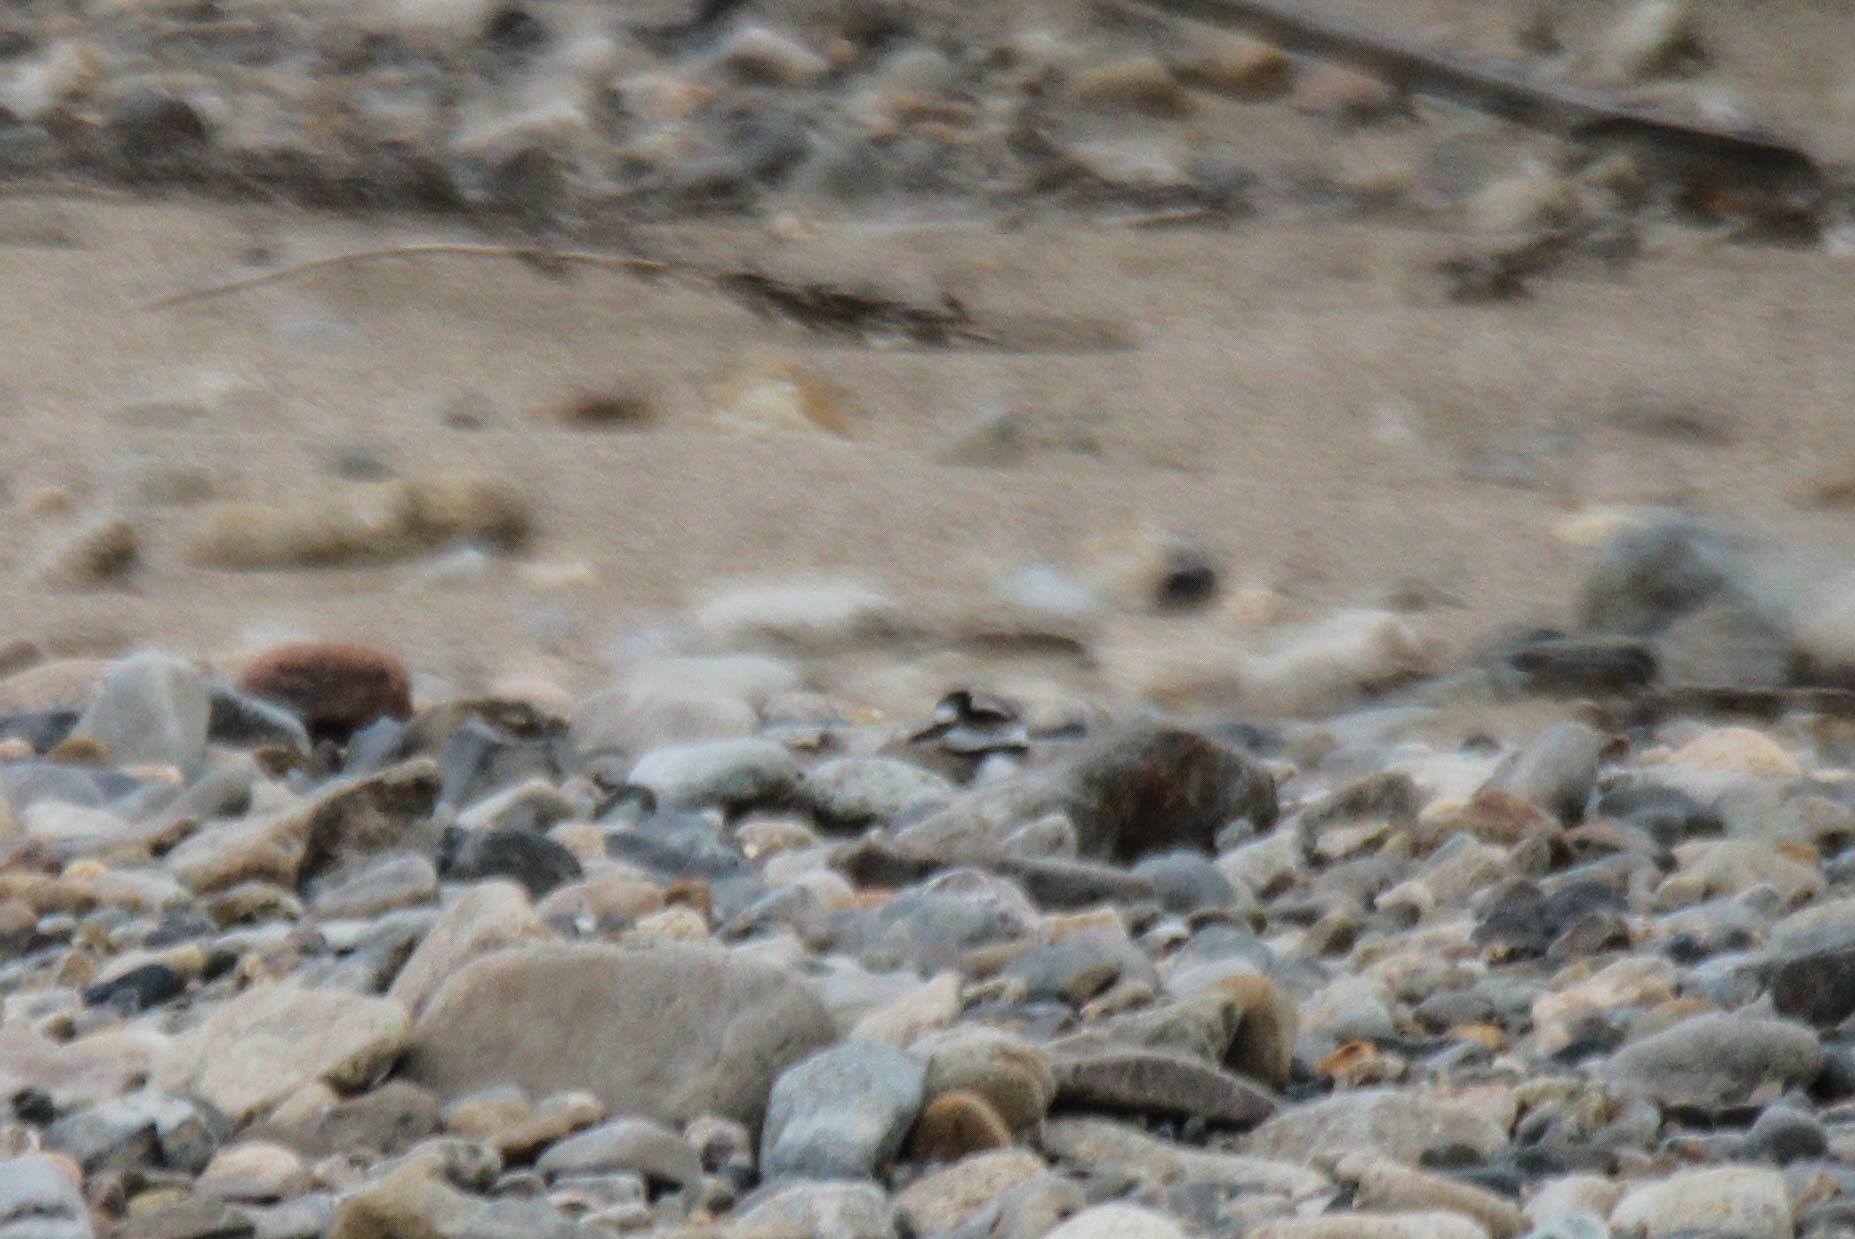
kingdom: Animalia
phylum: Chordata
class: Aves
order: Charadriiformes
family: Charadriidae
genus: Charadrius
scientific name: Charadrius placidus
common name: Long-billed plover
